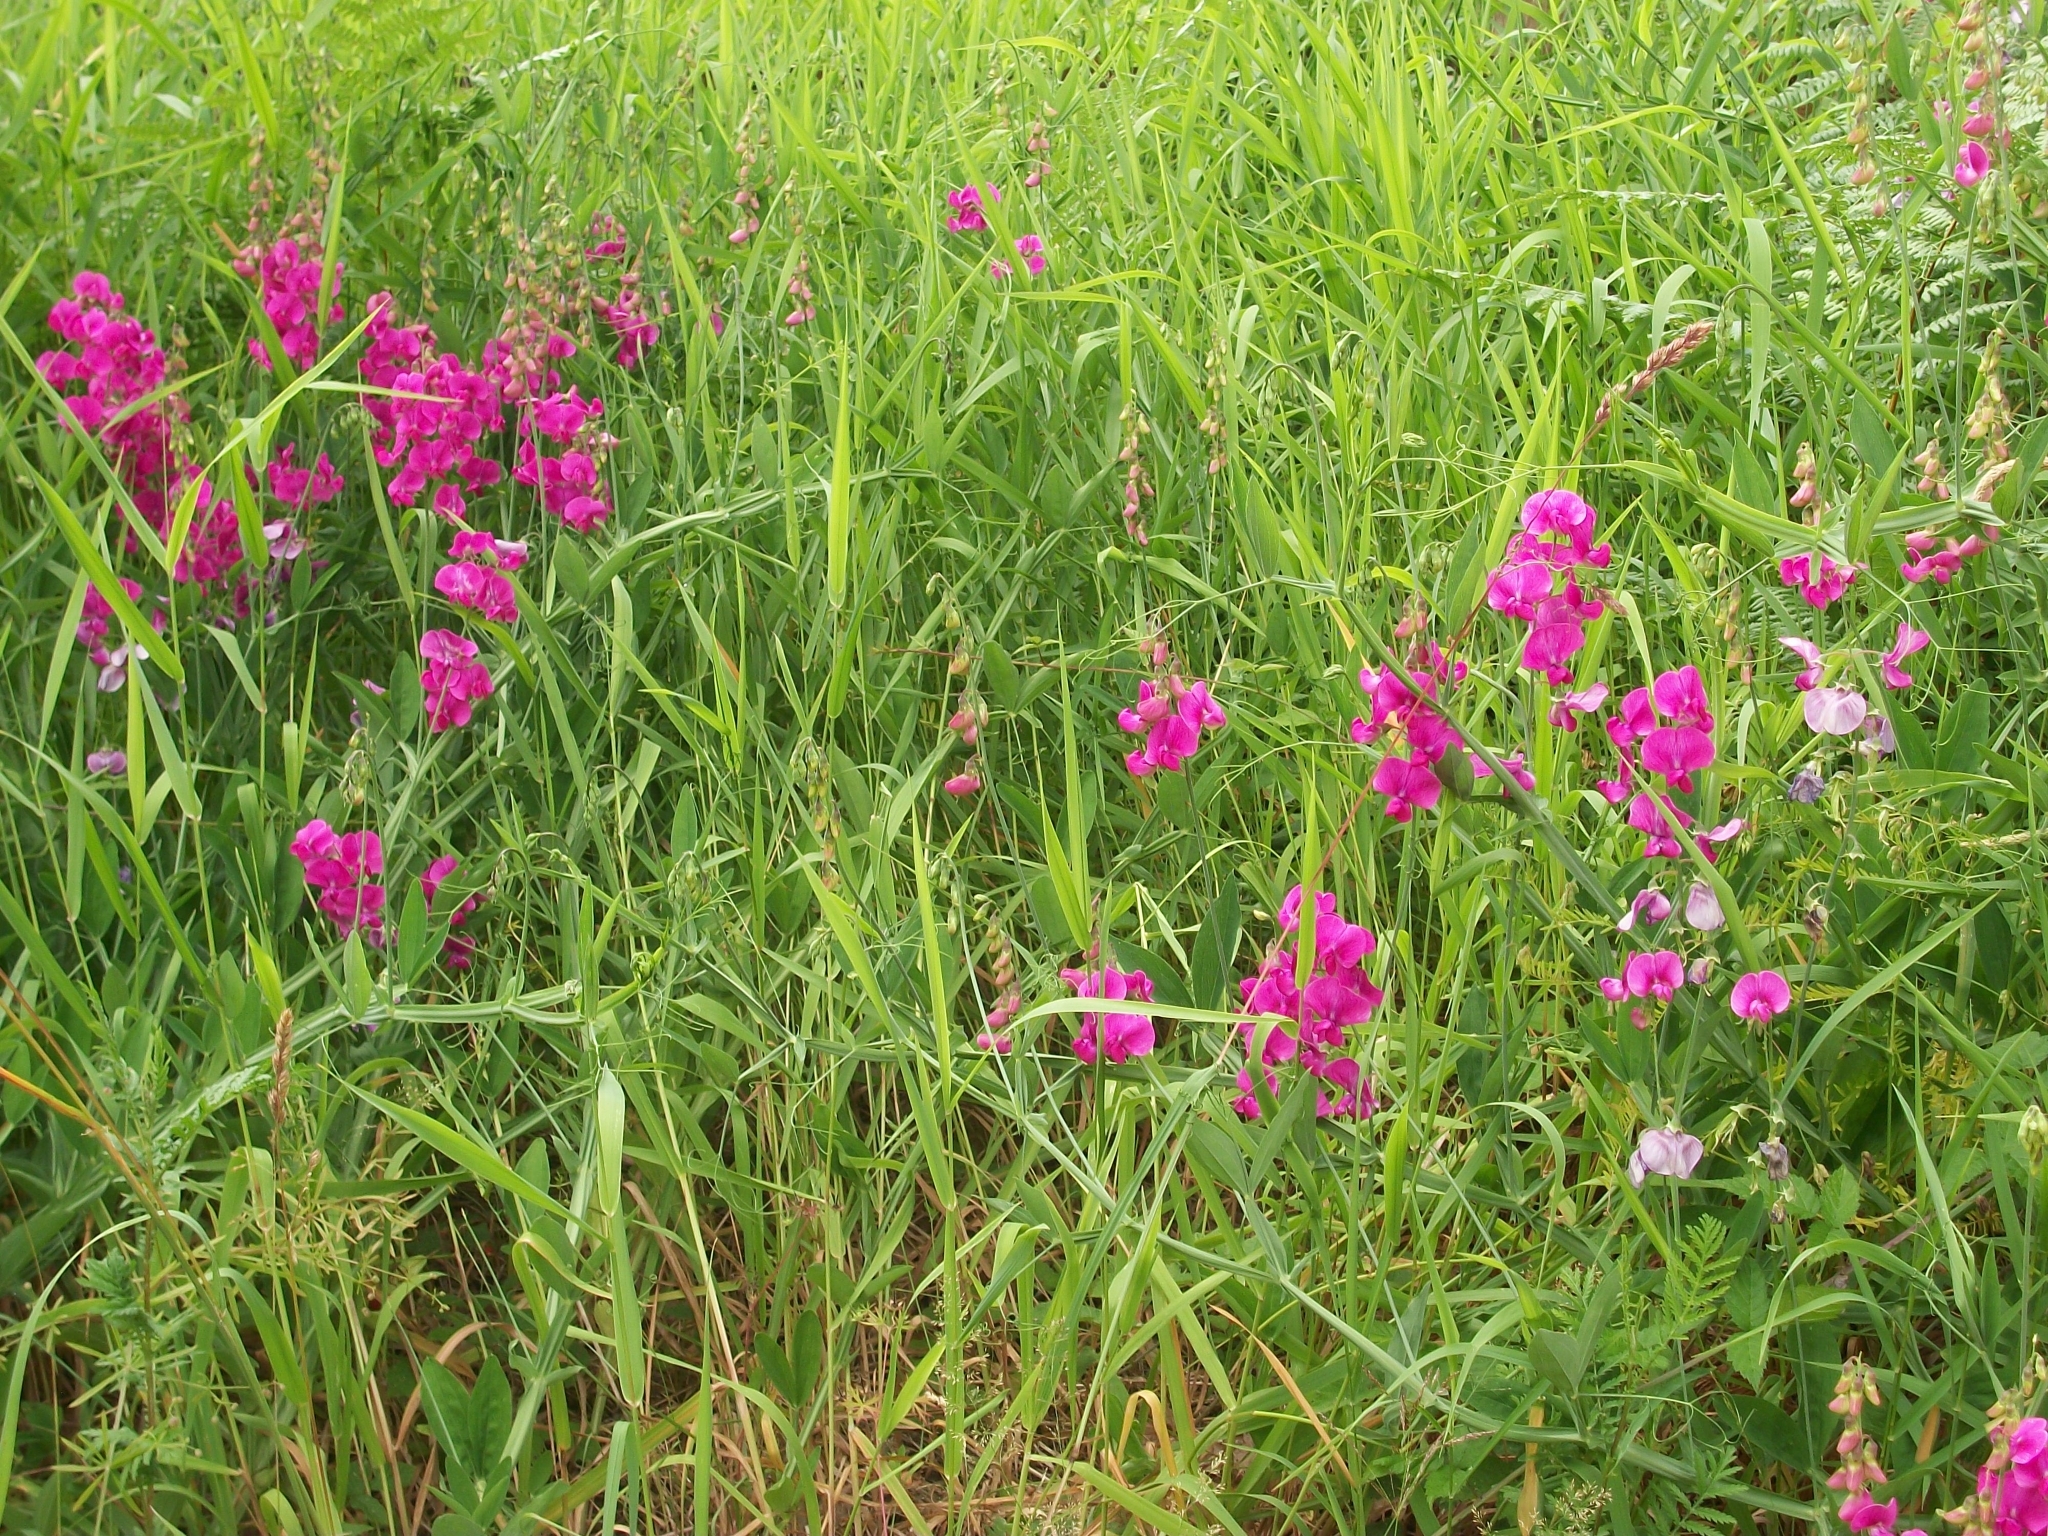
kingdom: Plantae
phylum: Tracheophyta
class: Magnoliopsida
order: Fabales
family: Fabaceae
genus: Lathyrus
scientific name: Lathyrus latifolius
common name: Perennial pea
